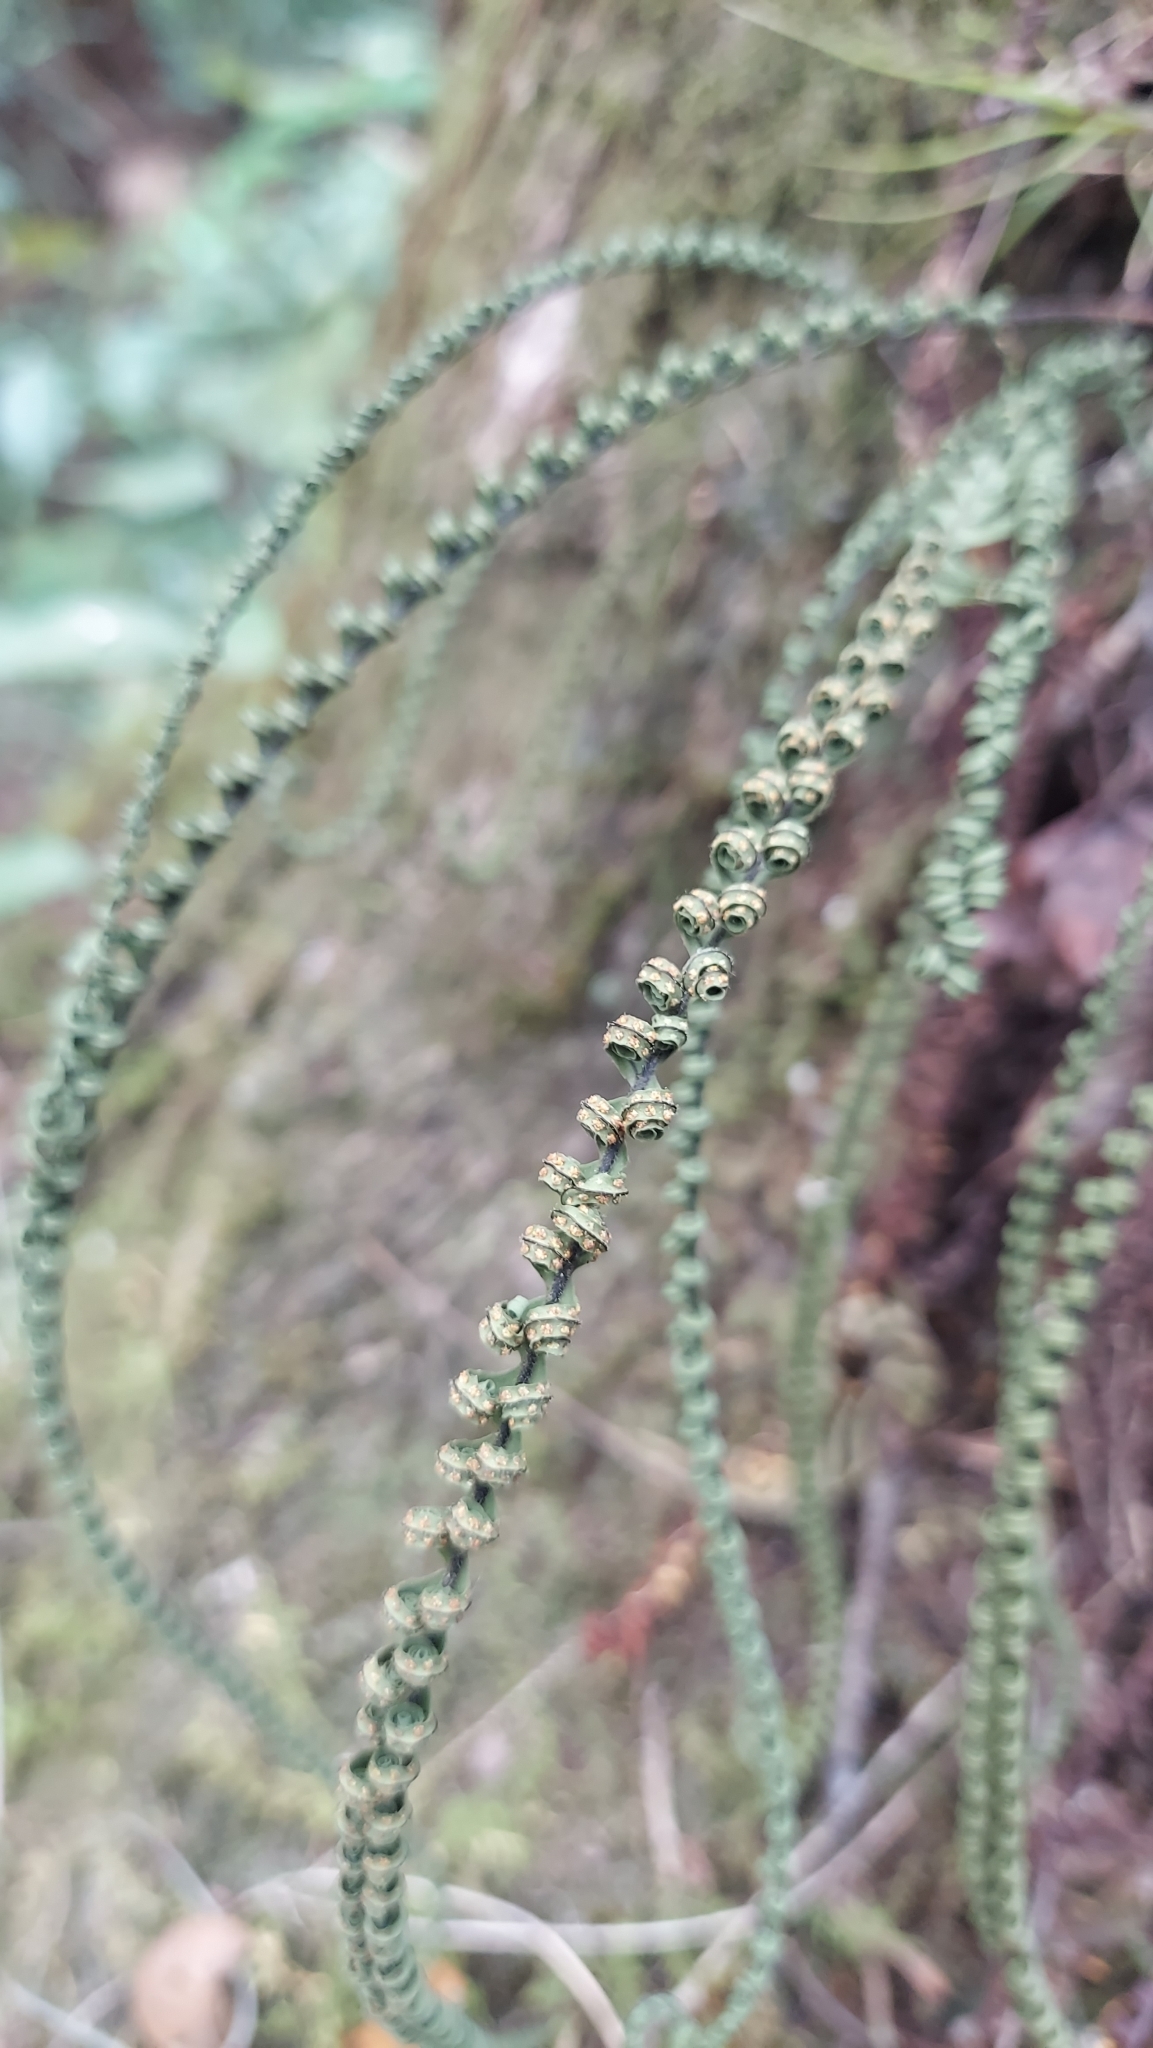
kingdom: Plantae
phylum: Tracheophyta
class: Polypodiopsida
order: Polypodiales
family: Polypodiaceae
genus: Pecluma
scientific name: Pecluma plumula
